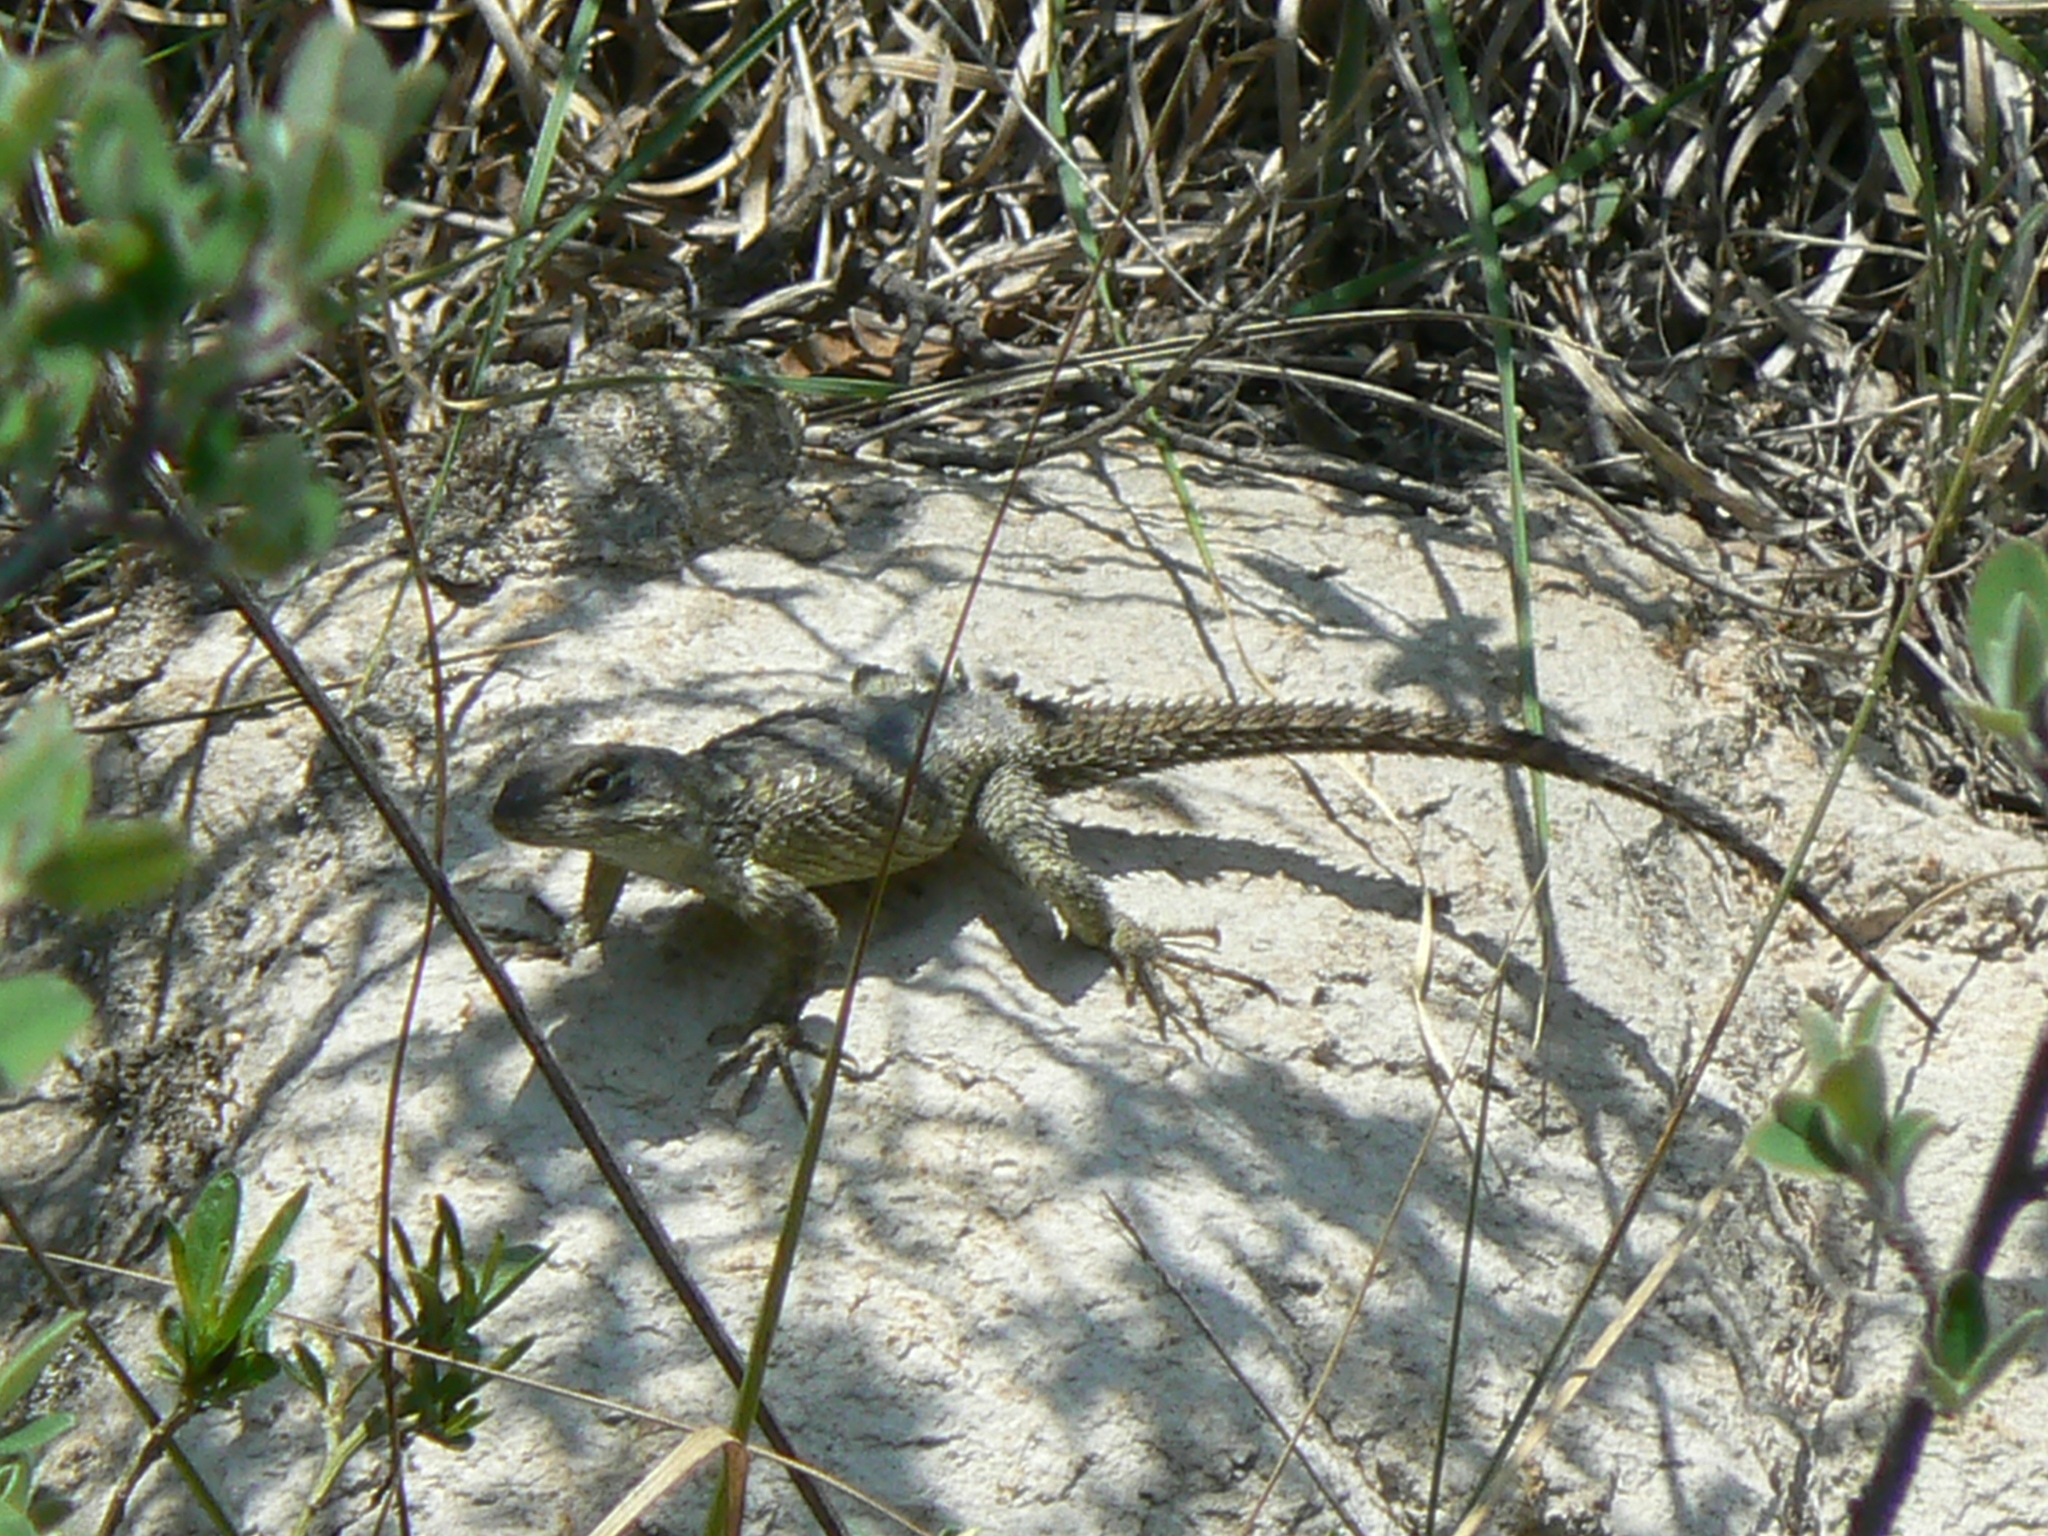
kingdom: Animalia
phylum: Chordata
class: Squamata
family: Phrynosomatidae
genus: Sceloporus
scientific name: Sceloporus torquatus
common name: Central plateau torquate lizard [melanogaster]
